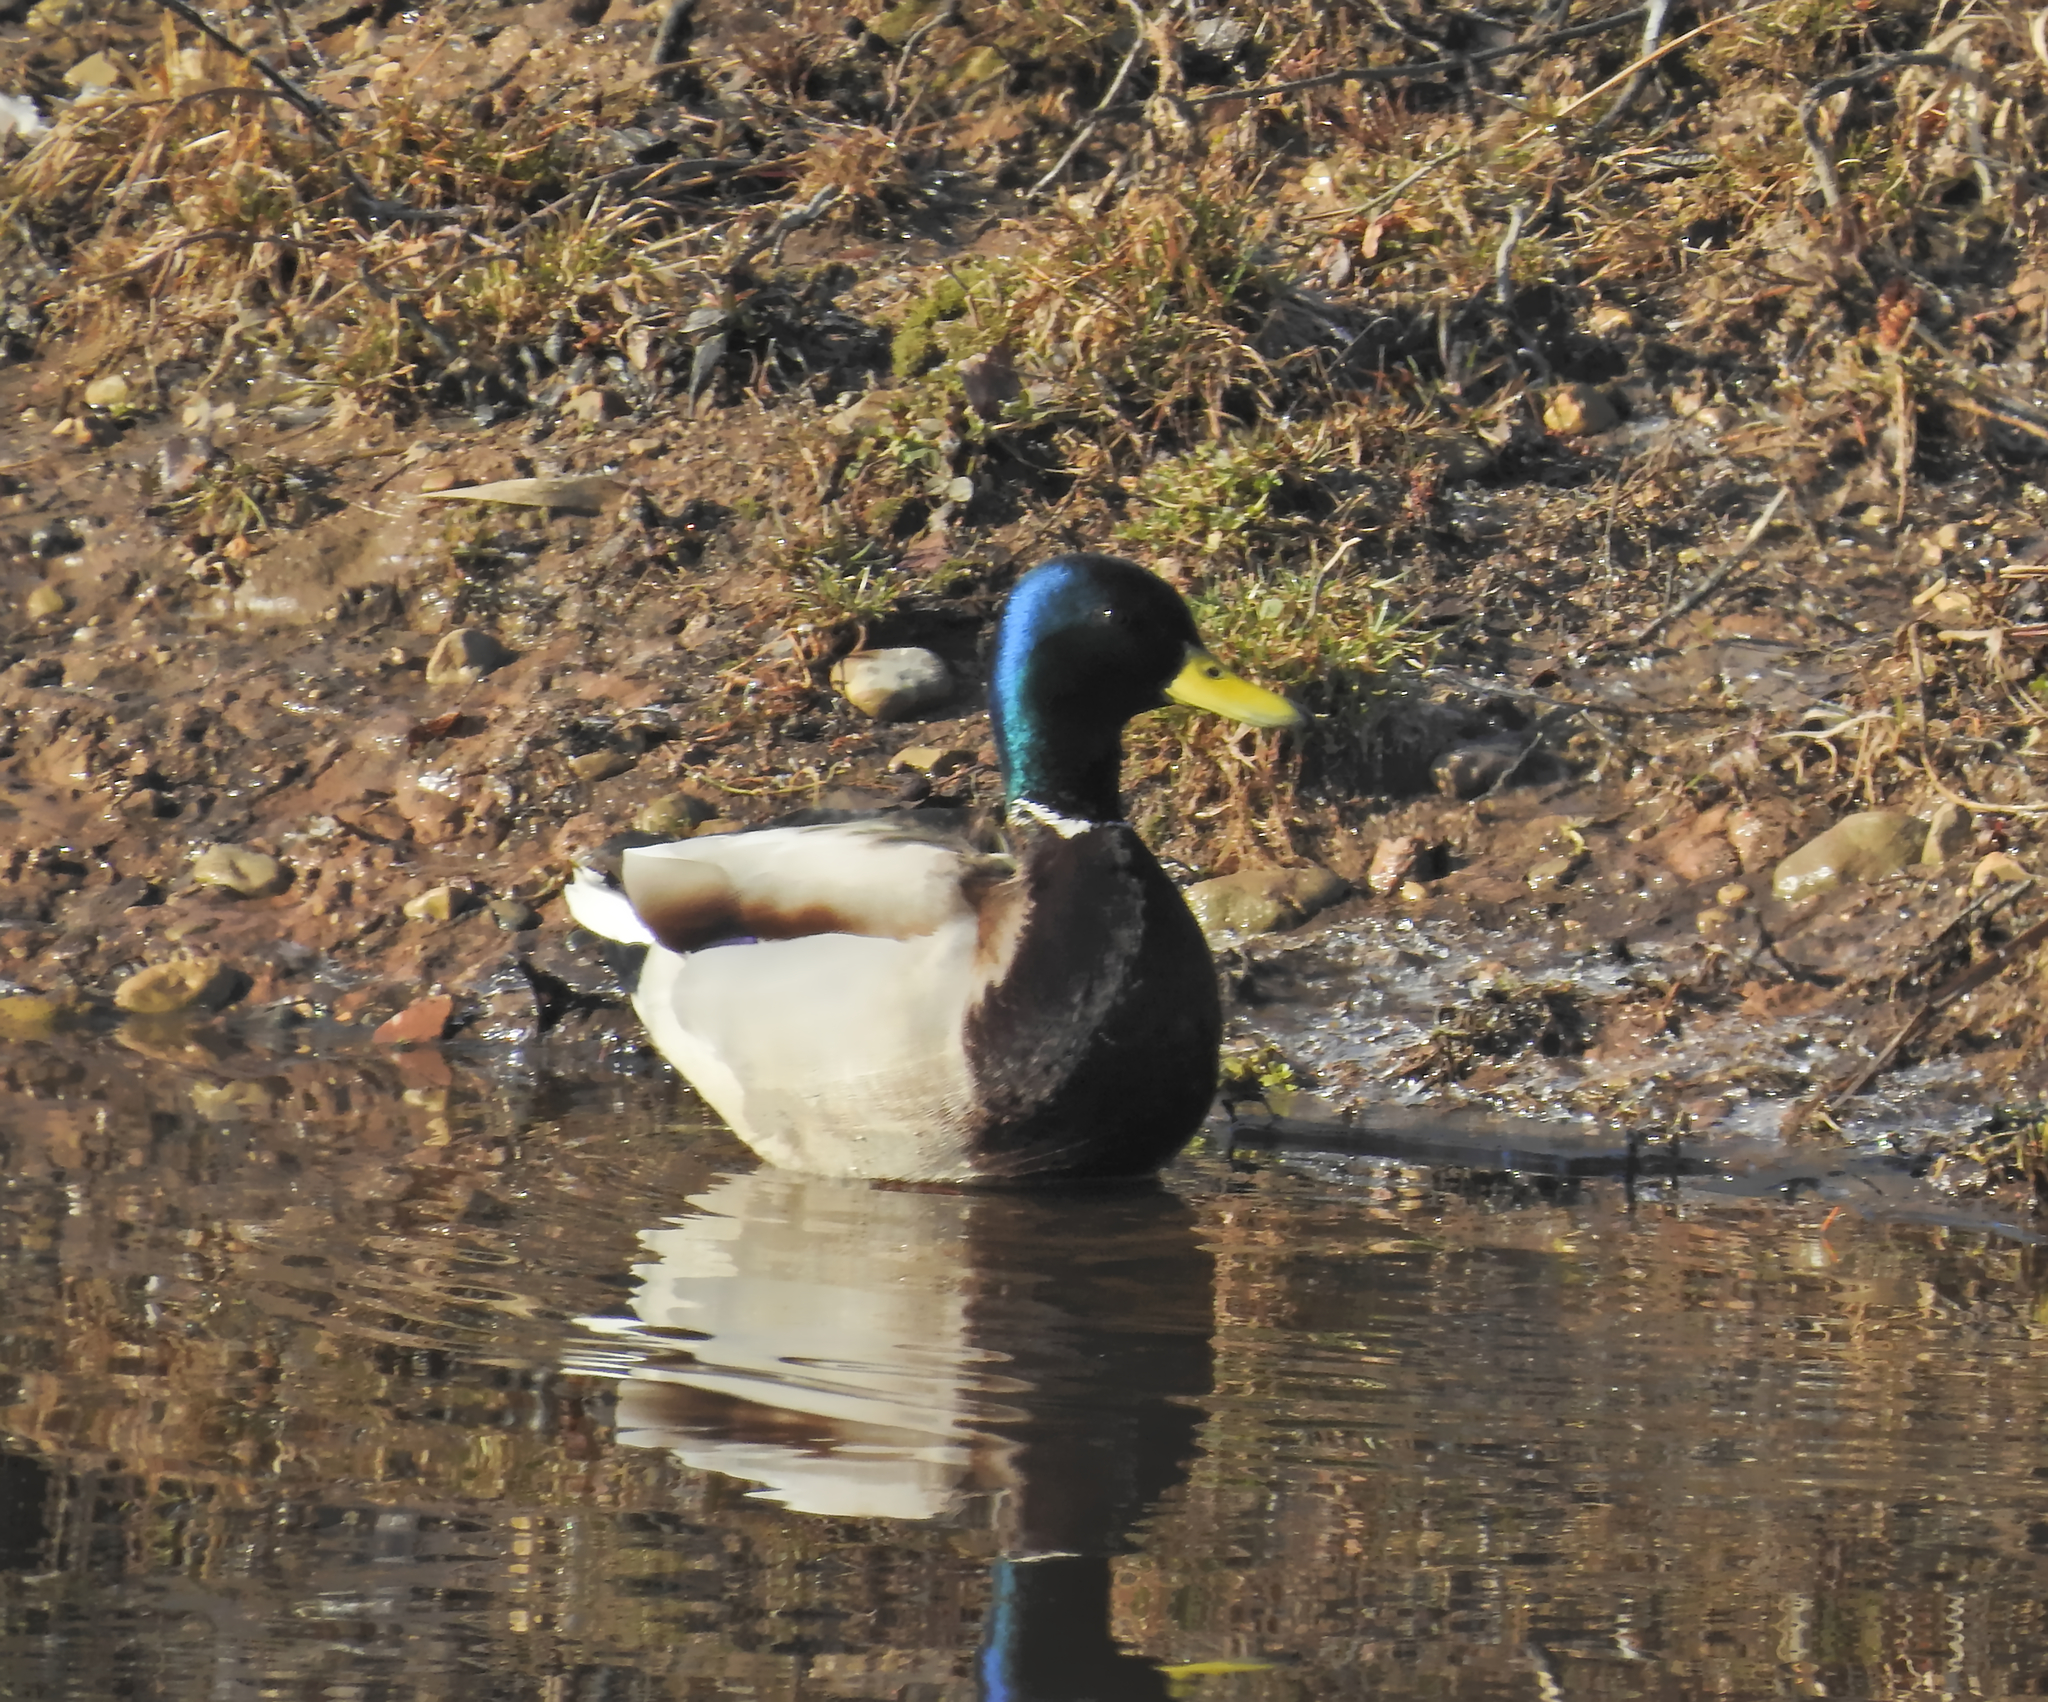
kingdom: Animalia
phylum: Chordata
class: Aves
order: Anseriformes
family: Anatidae
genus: Anas
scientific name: Anas platyrhynchos
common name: Mallard
